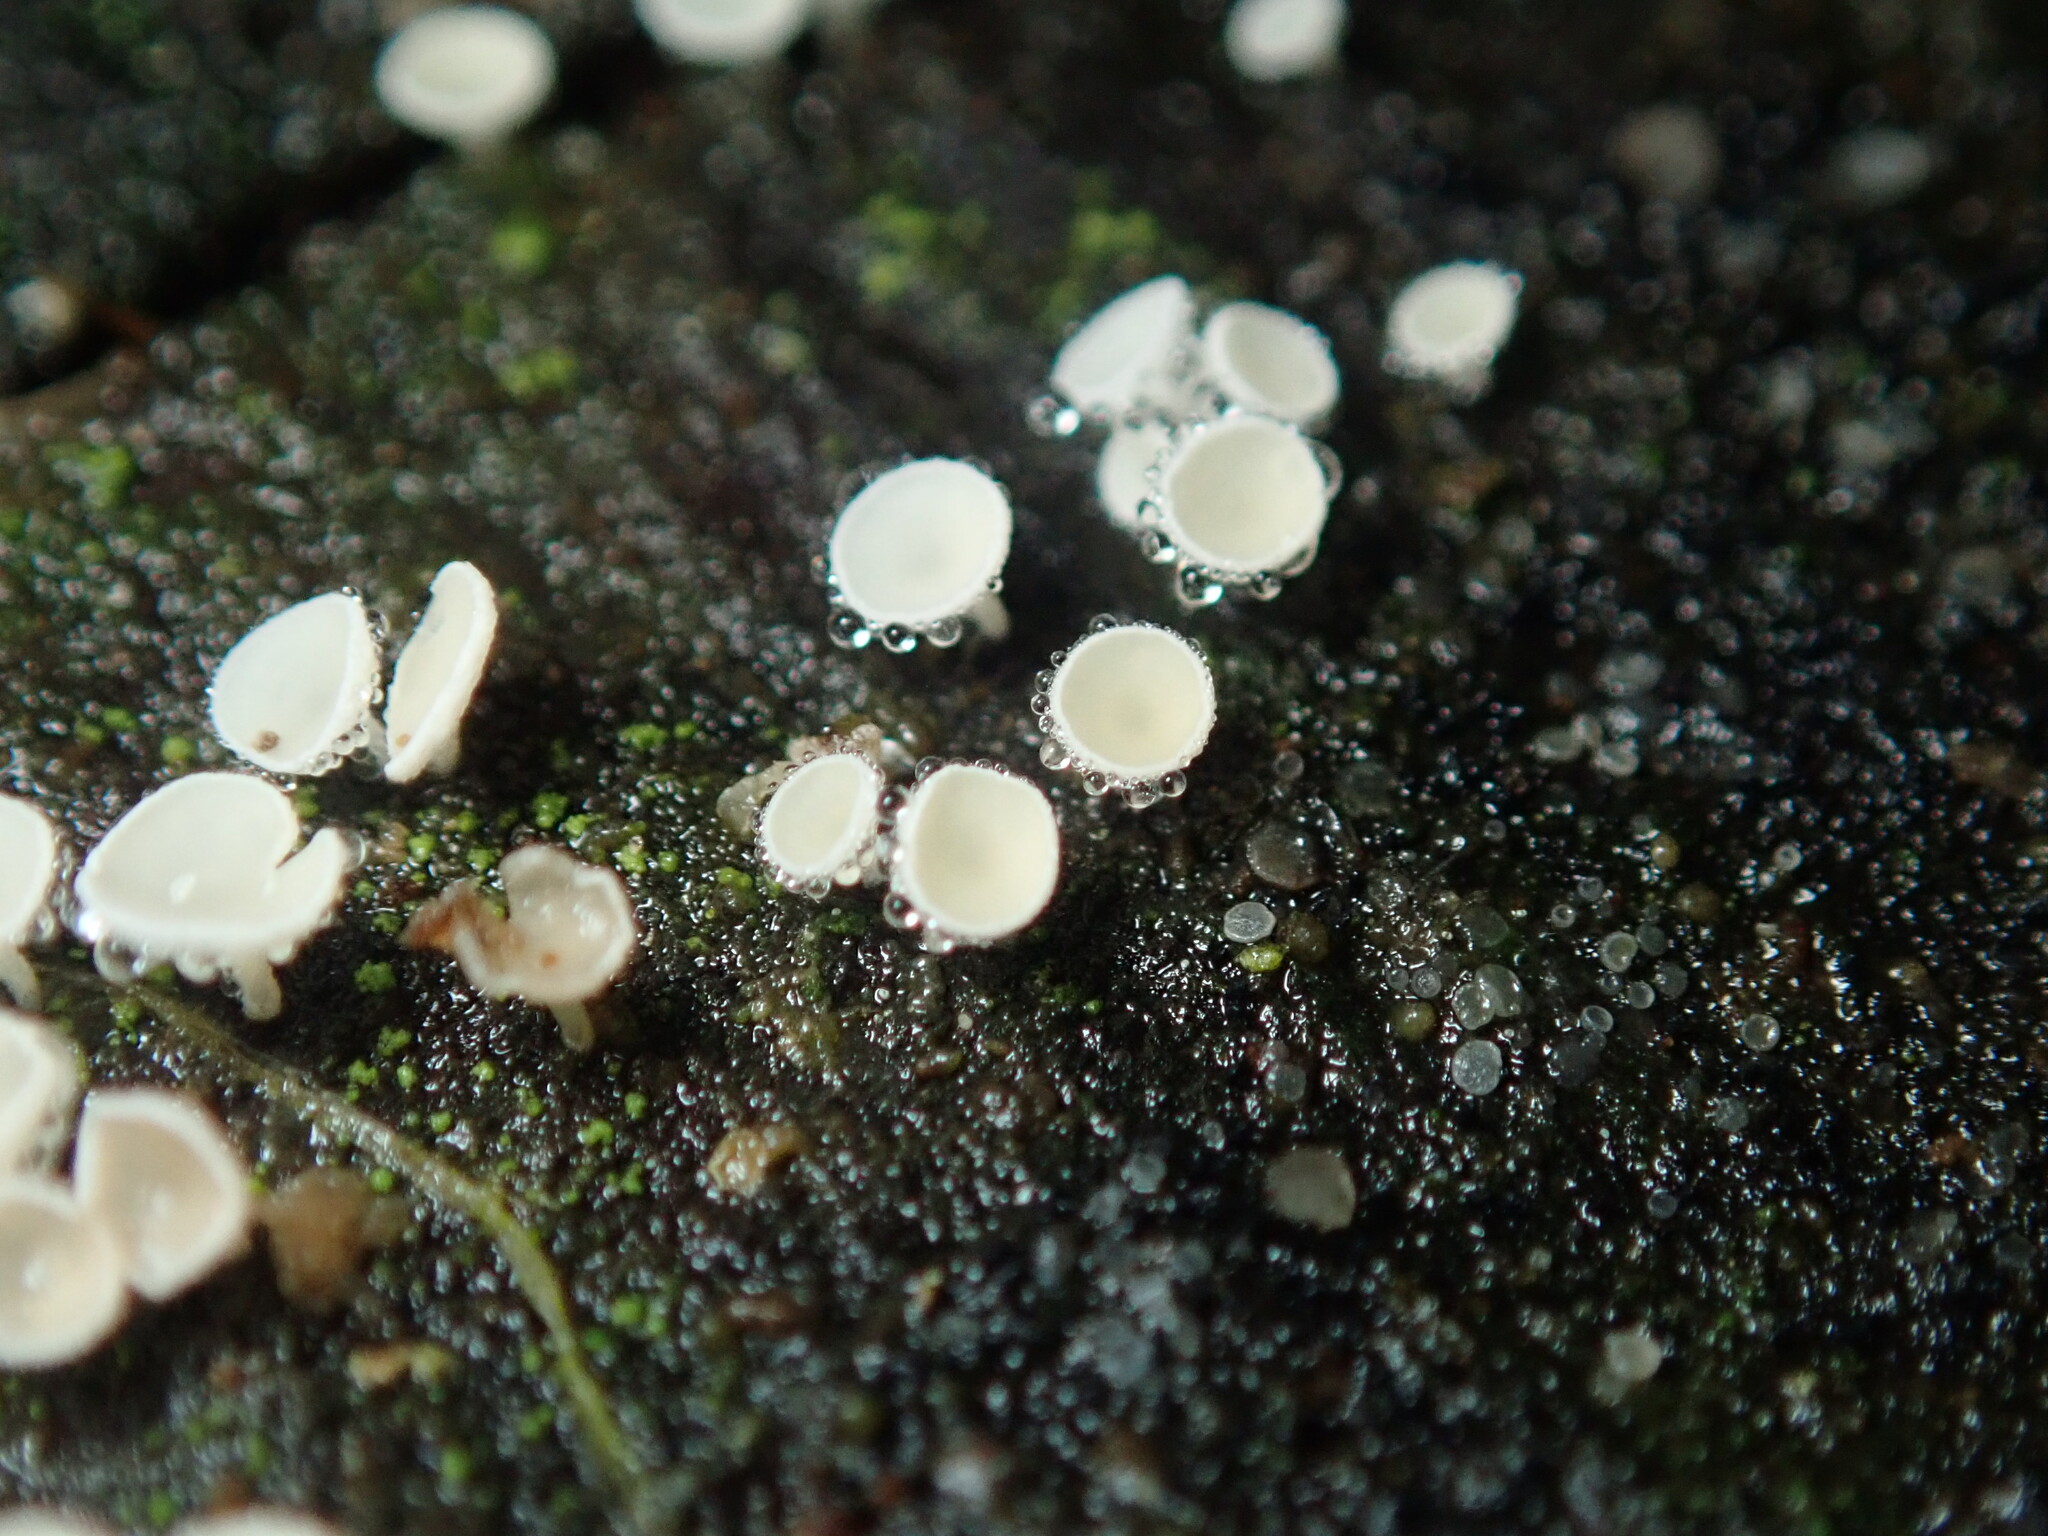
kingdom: Fungi
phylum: Ascomycota
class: Leotiomycetes
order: Helotiales
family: Lachnaceae
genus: Lachnum
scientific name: Lachnum virgineum
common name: Snowy disco
